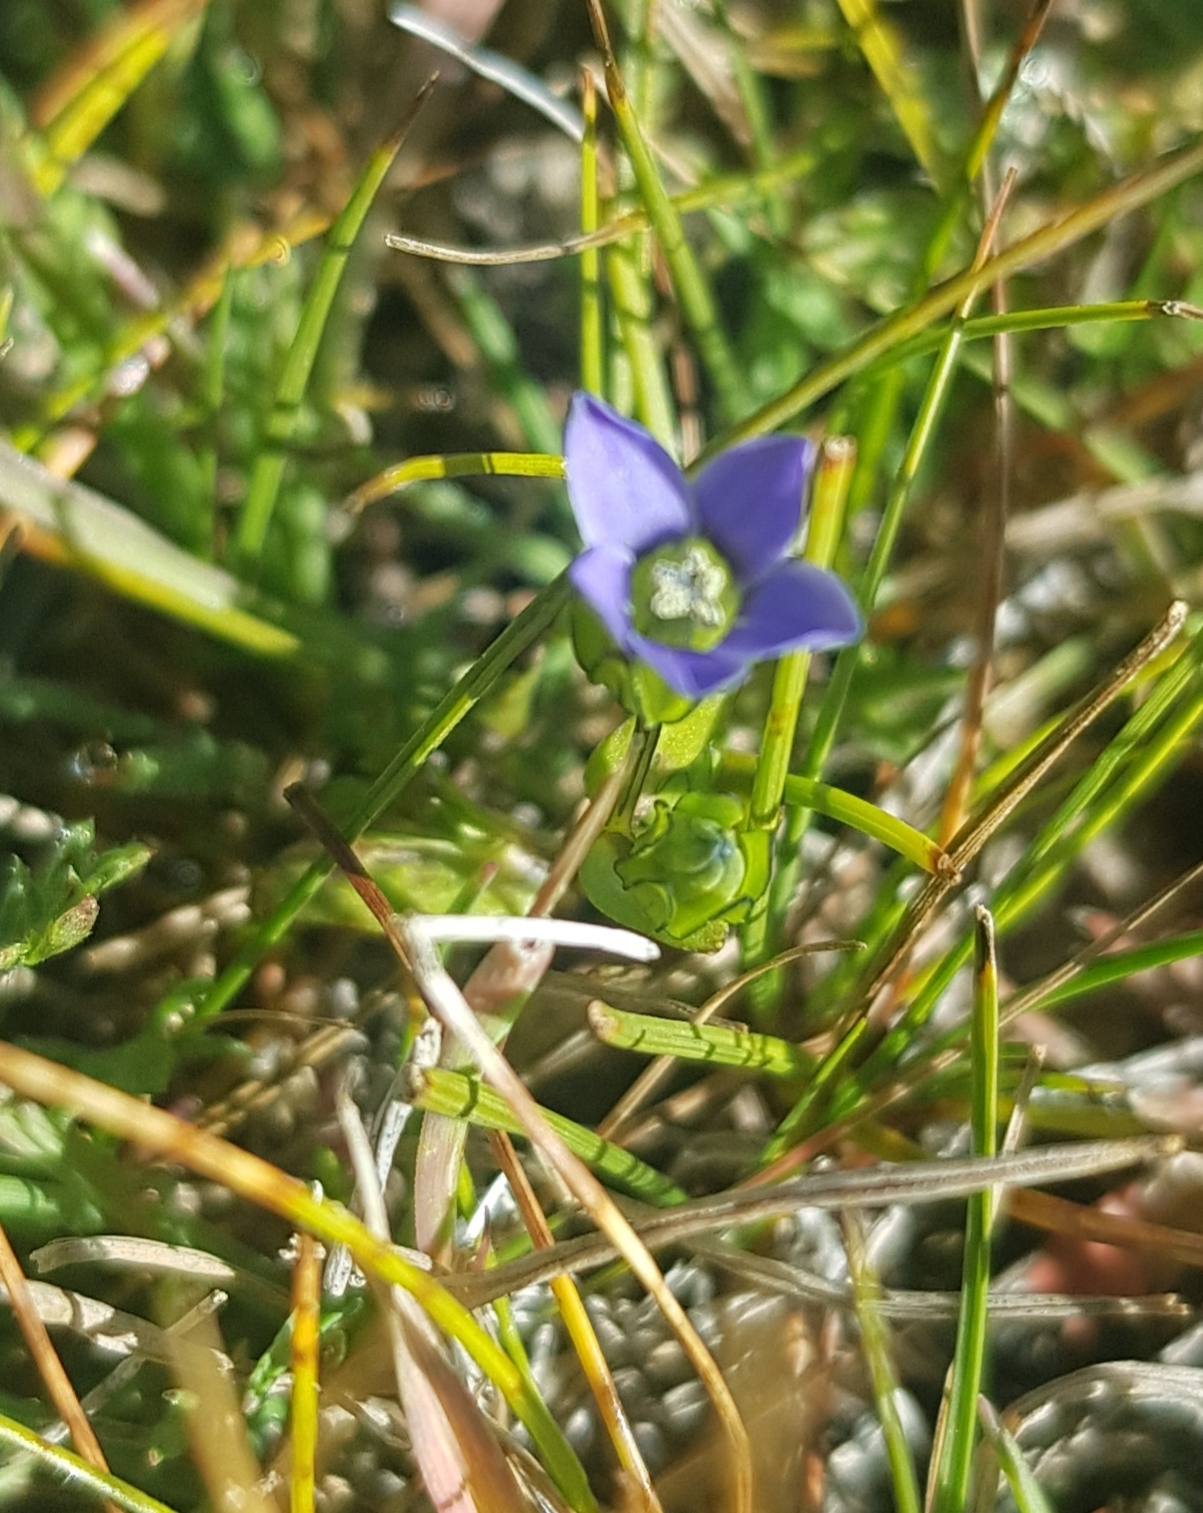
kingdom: Plantae
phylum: Tracheophyta
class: Magnoliopsida
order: Gentianales
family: Gentianaceae
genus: Gentiana
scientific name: Gentiana prostrata
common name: Moss gentian
